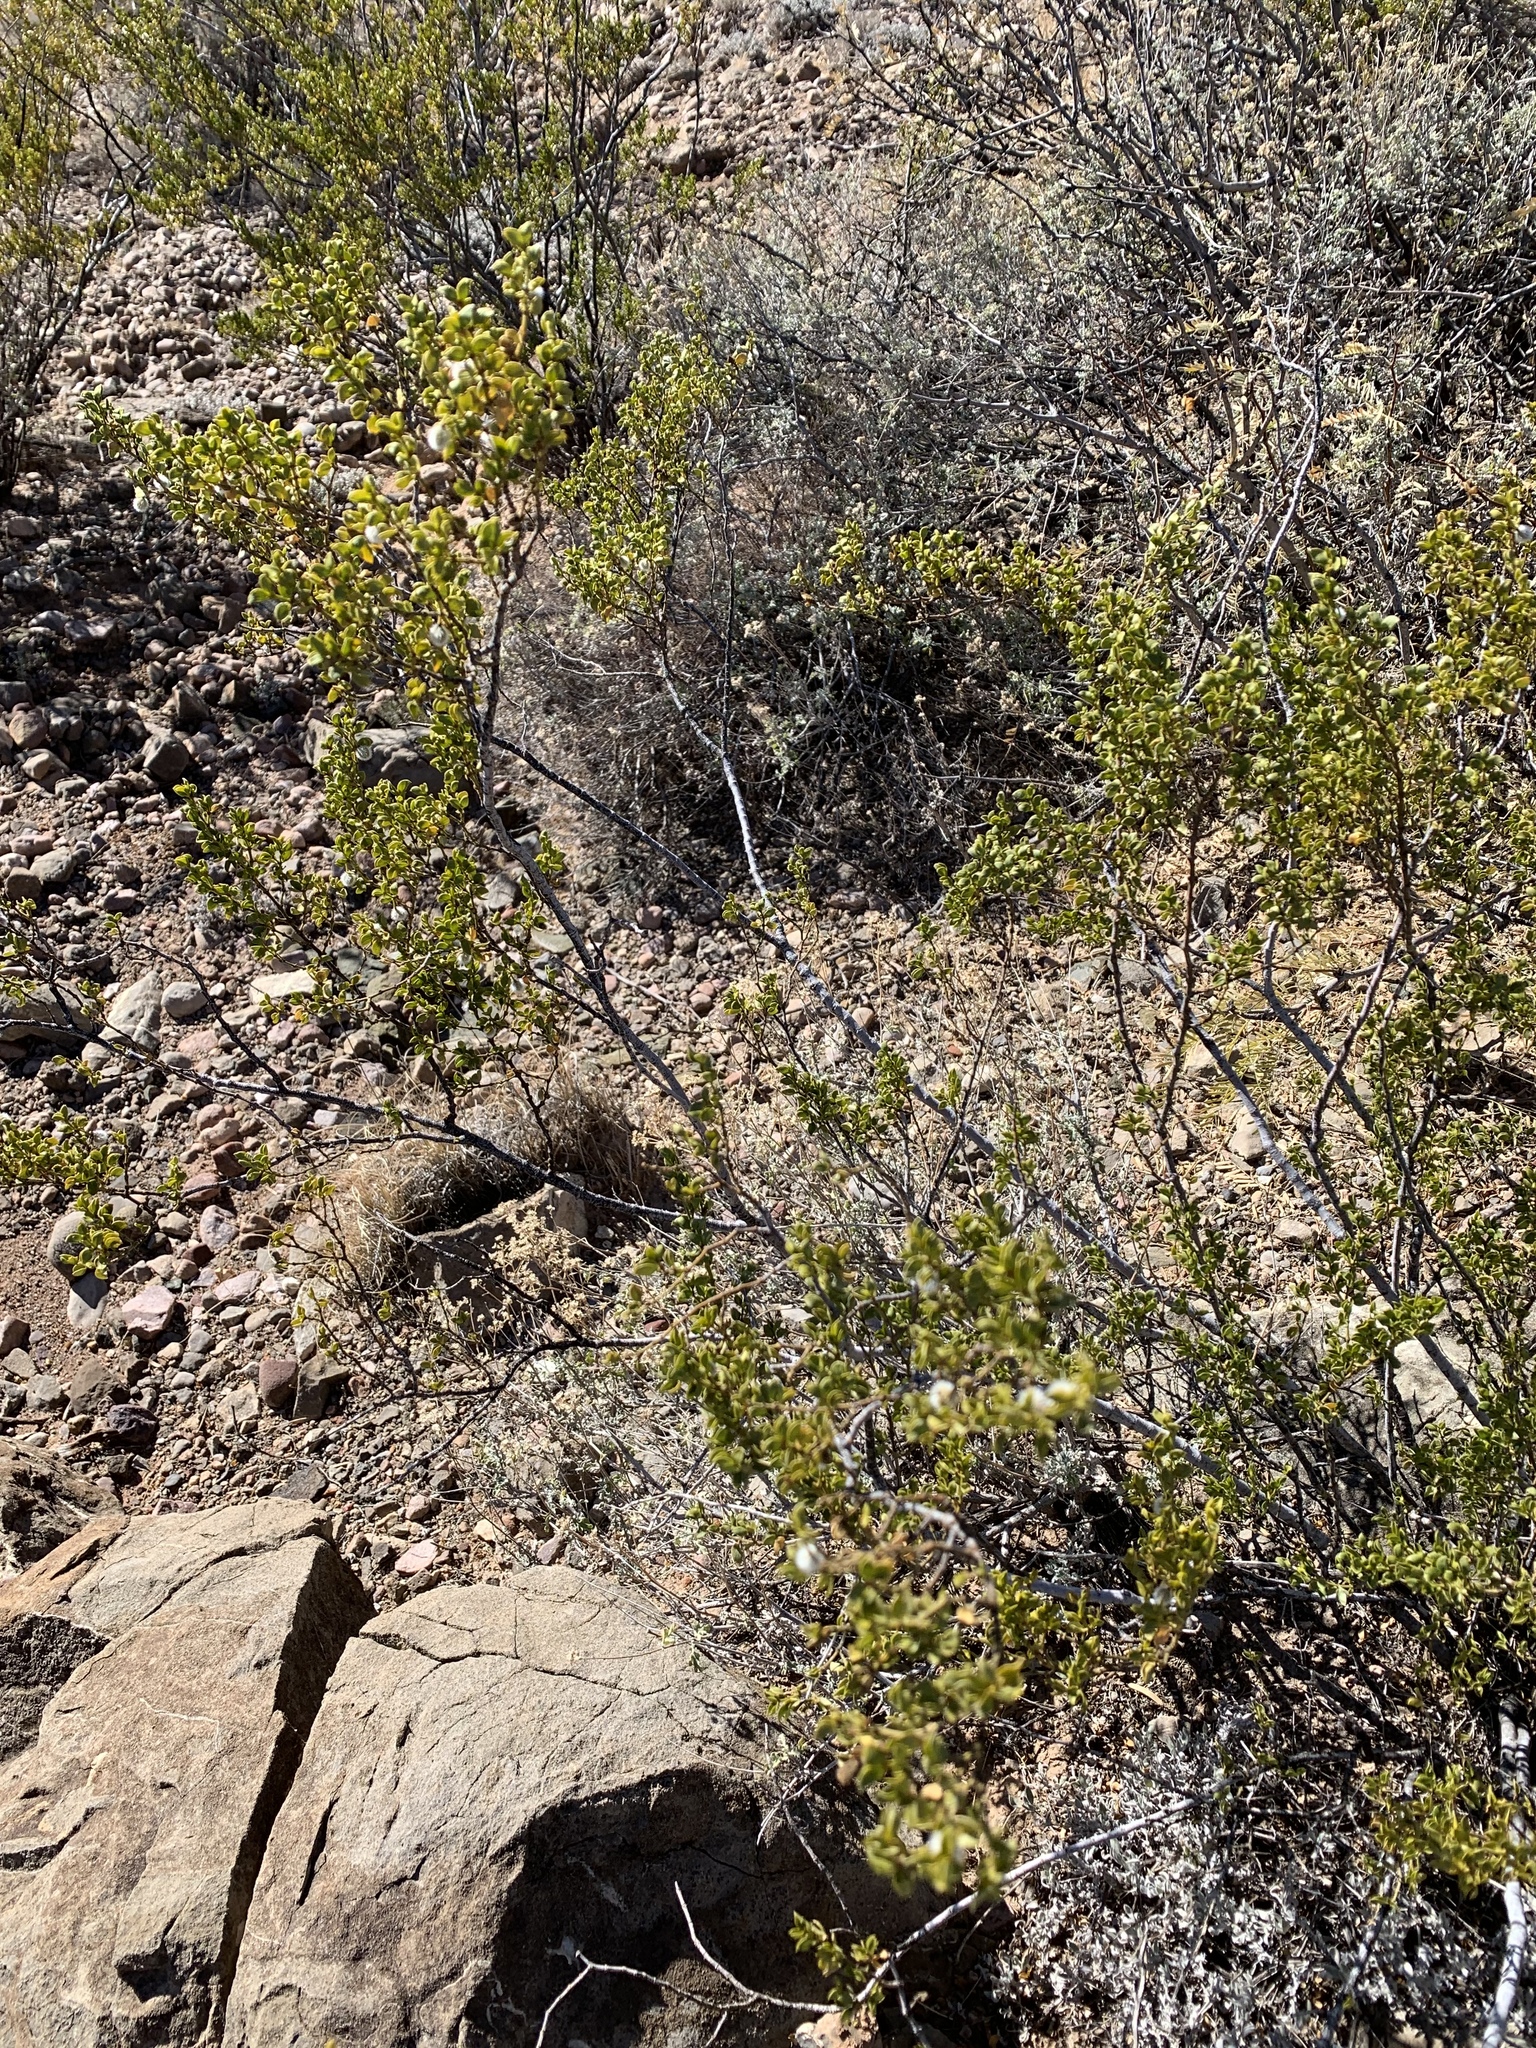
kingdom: Plantae
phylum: Tracheophyta
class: Magnoliopsida
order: Zygophyllales
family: Zygophyllaceae
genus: Larrea
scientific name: Larrea tridentata
